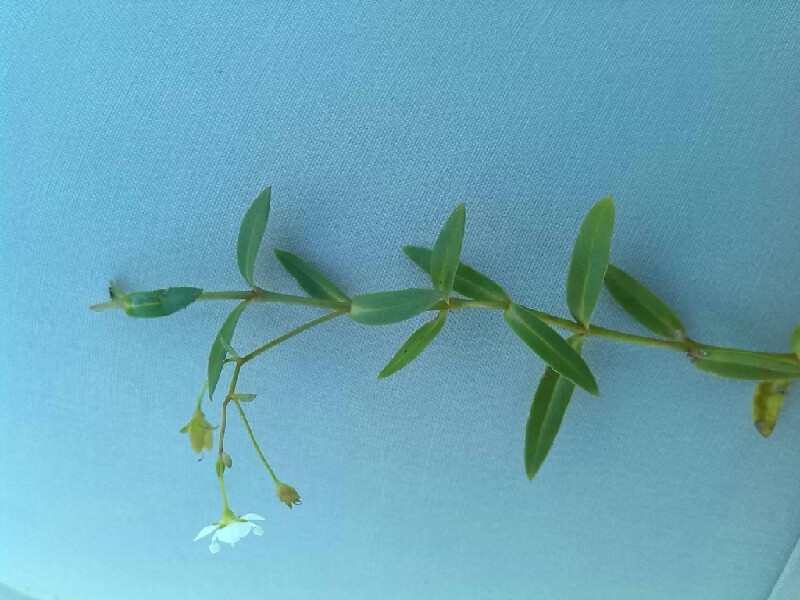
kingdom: Plantae
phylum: Tracheophyta
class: Magnoliopsida
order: Lamiales
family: Plantaginaceae
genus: Veronica
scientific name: Veronica scutellata
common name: Marsh speedwell
